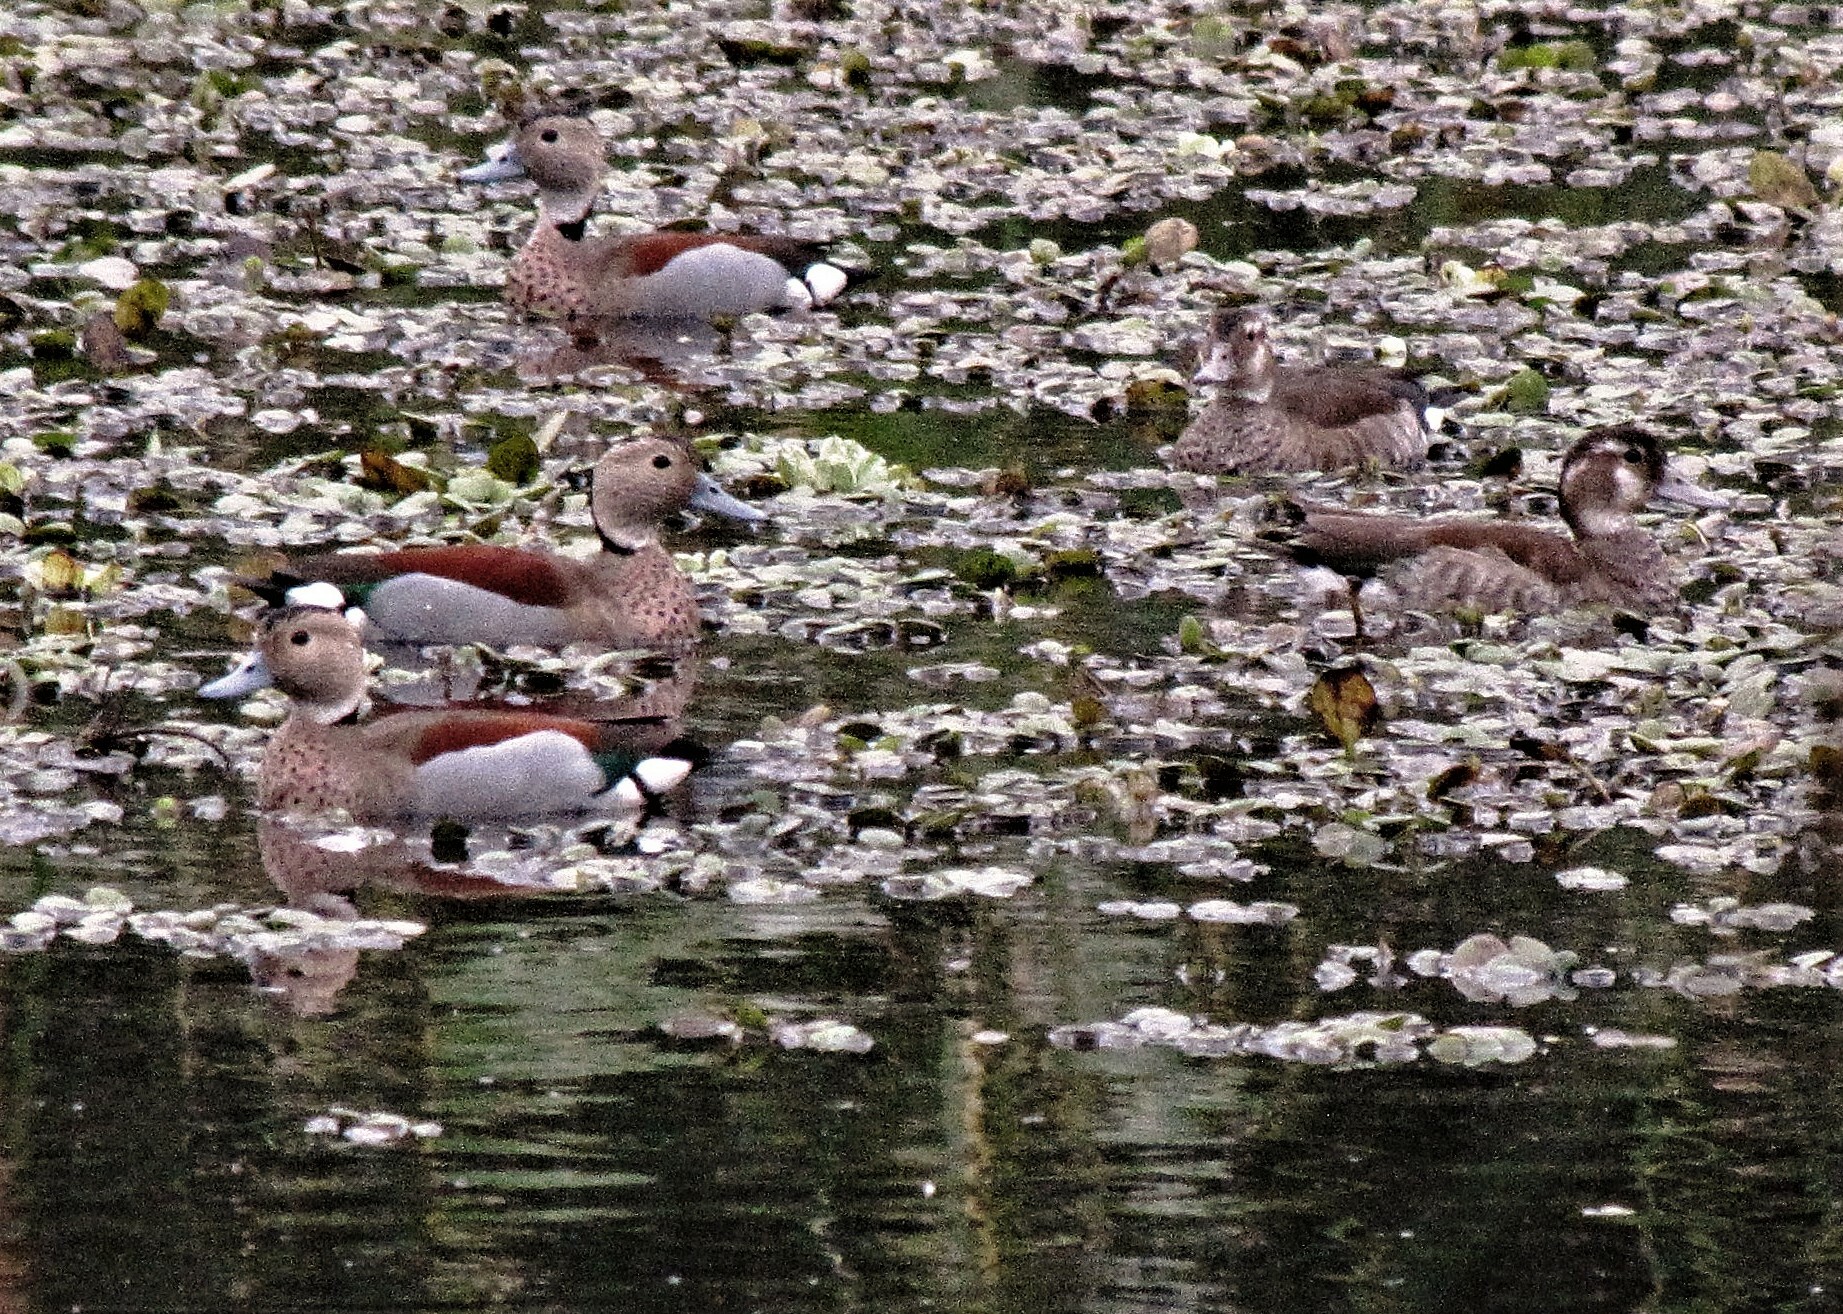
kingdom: Animalia
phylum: Chordata
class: Aves
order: Anseriformes
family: Anatidae
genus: Callonetta
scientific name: Callonetta leucophrys
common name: Ringed teal
